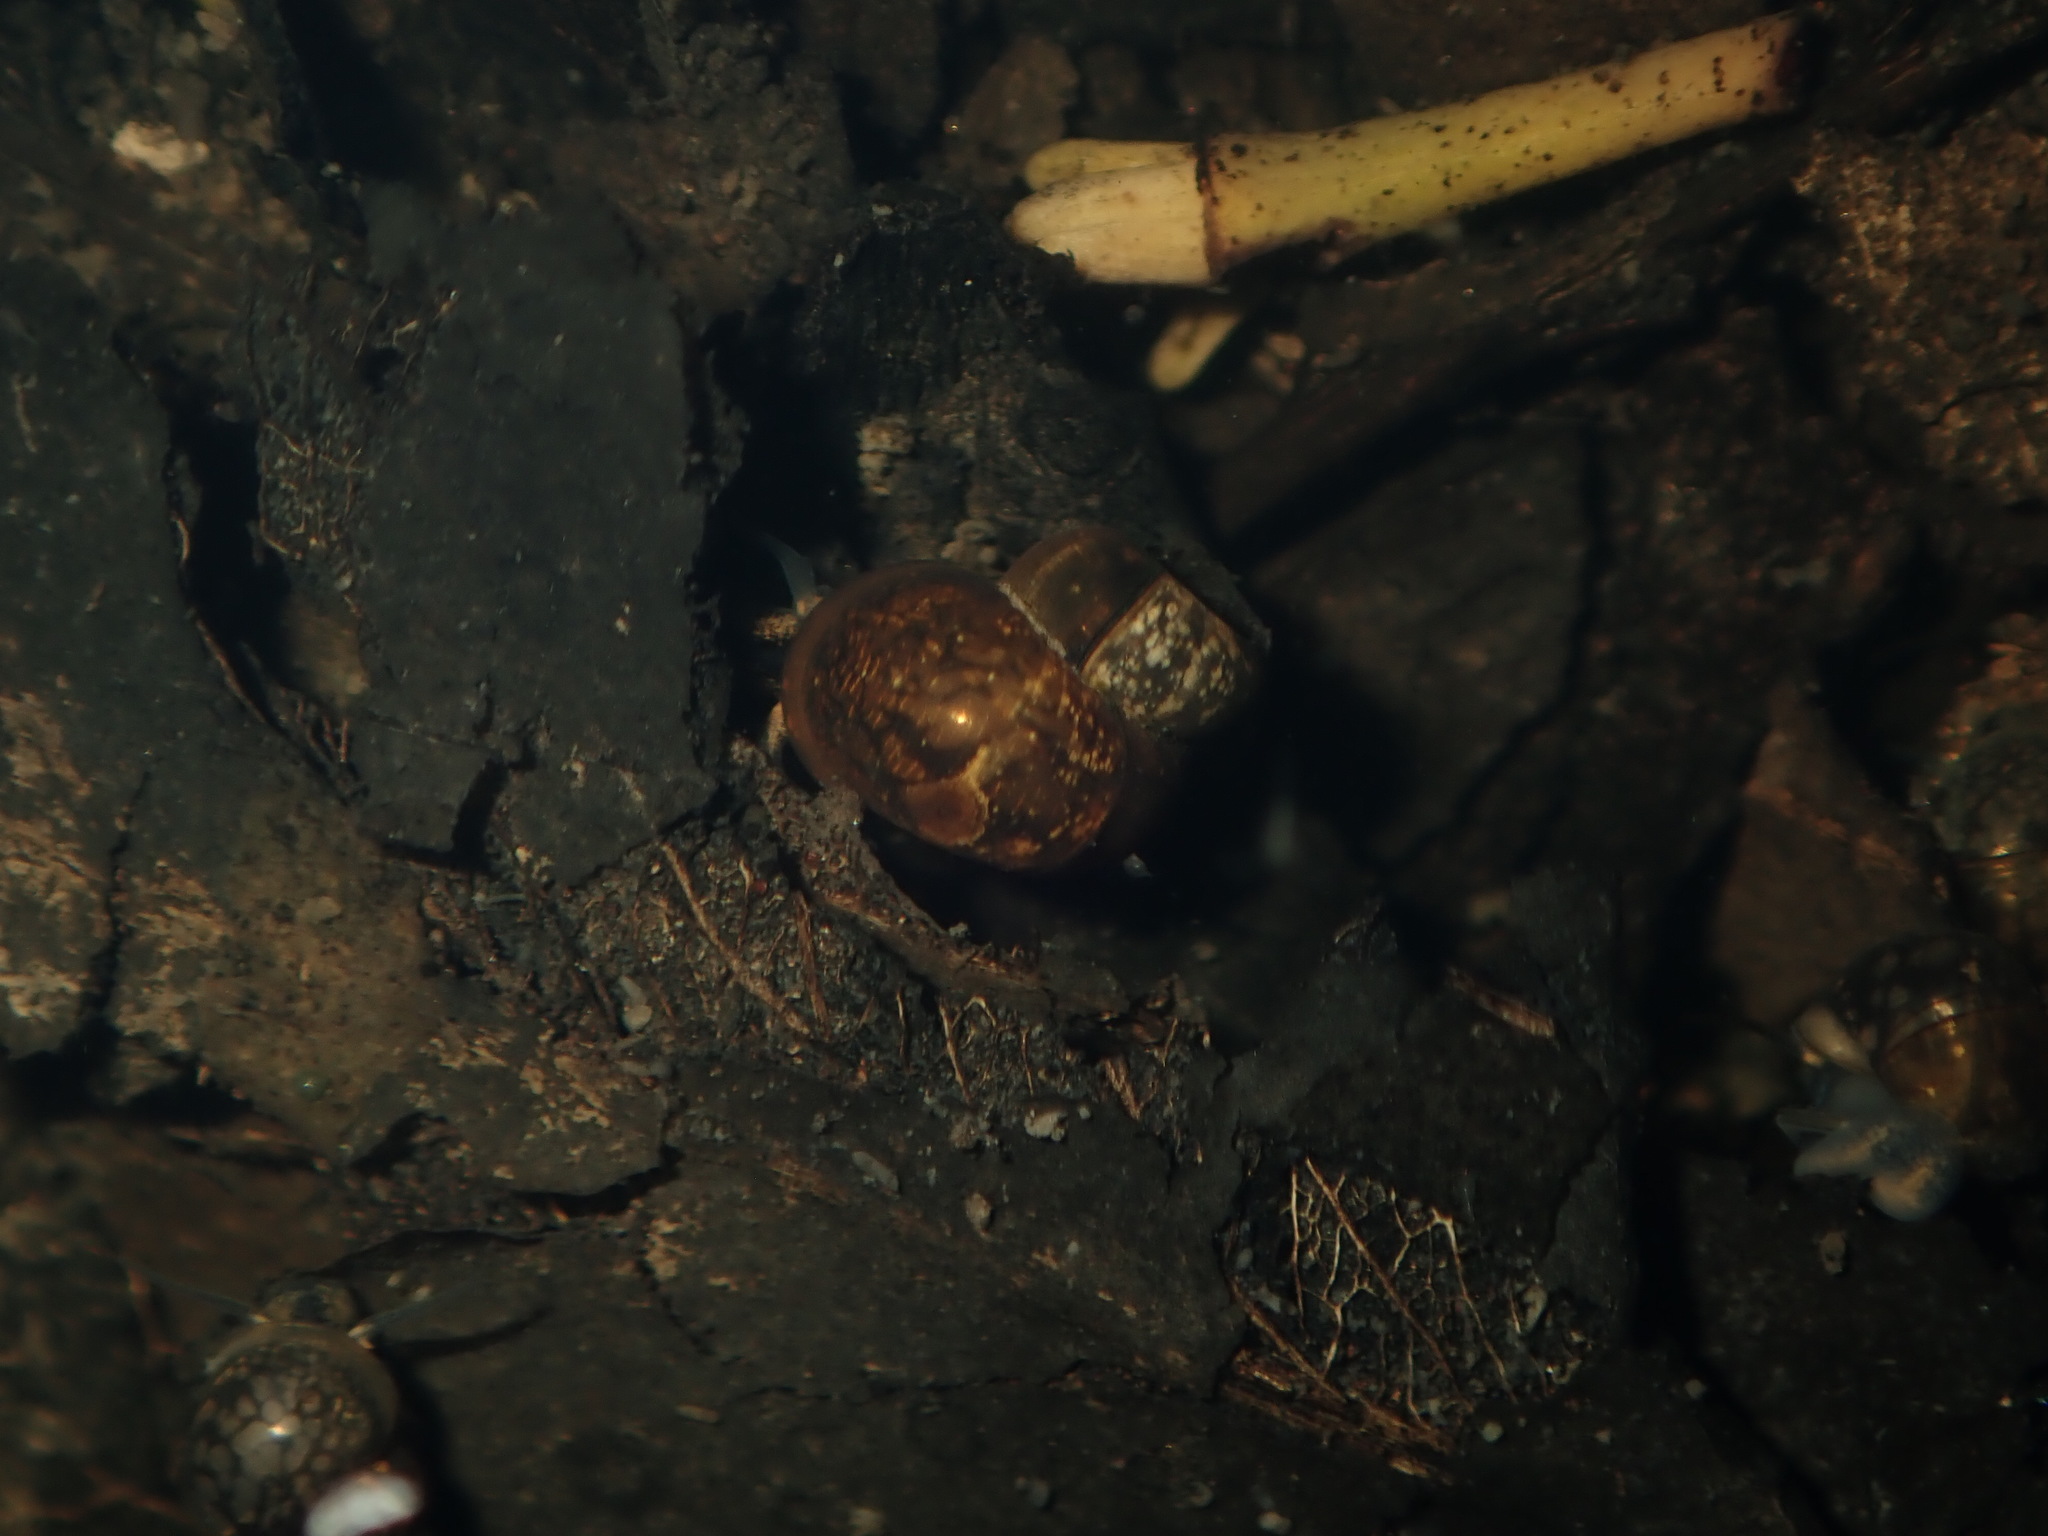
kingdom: Animalia
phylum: Mollusca
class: Gastropoda
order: Littorinimorpha
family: Bithyniidae
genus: Gabbia
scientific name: Gabbia vertiginosa
